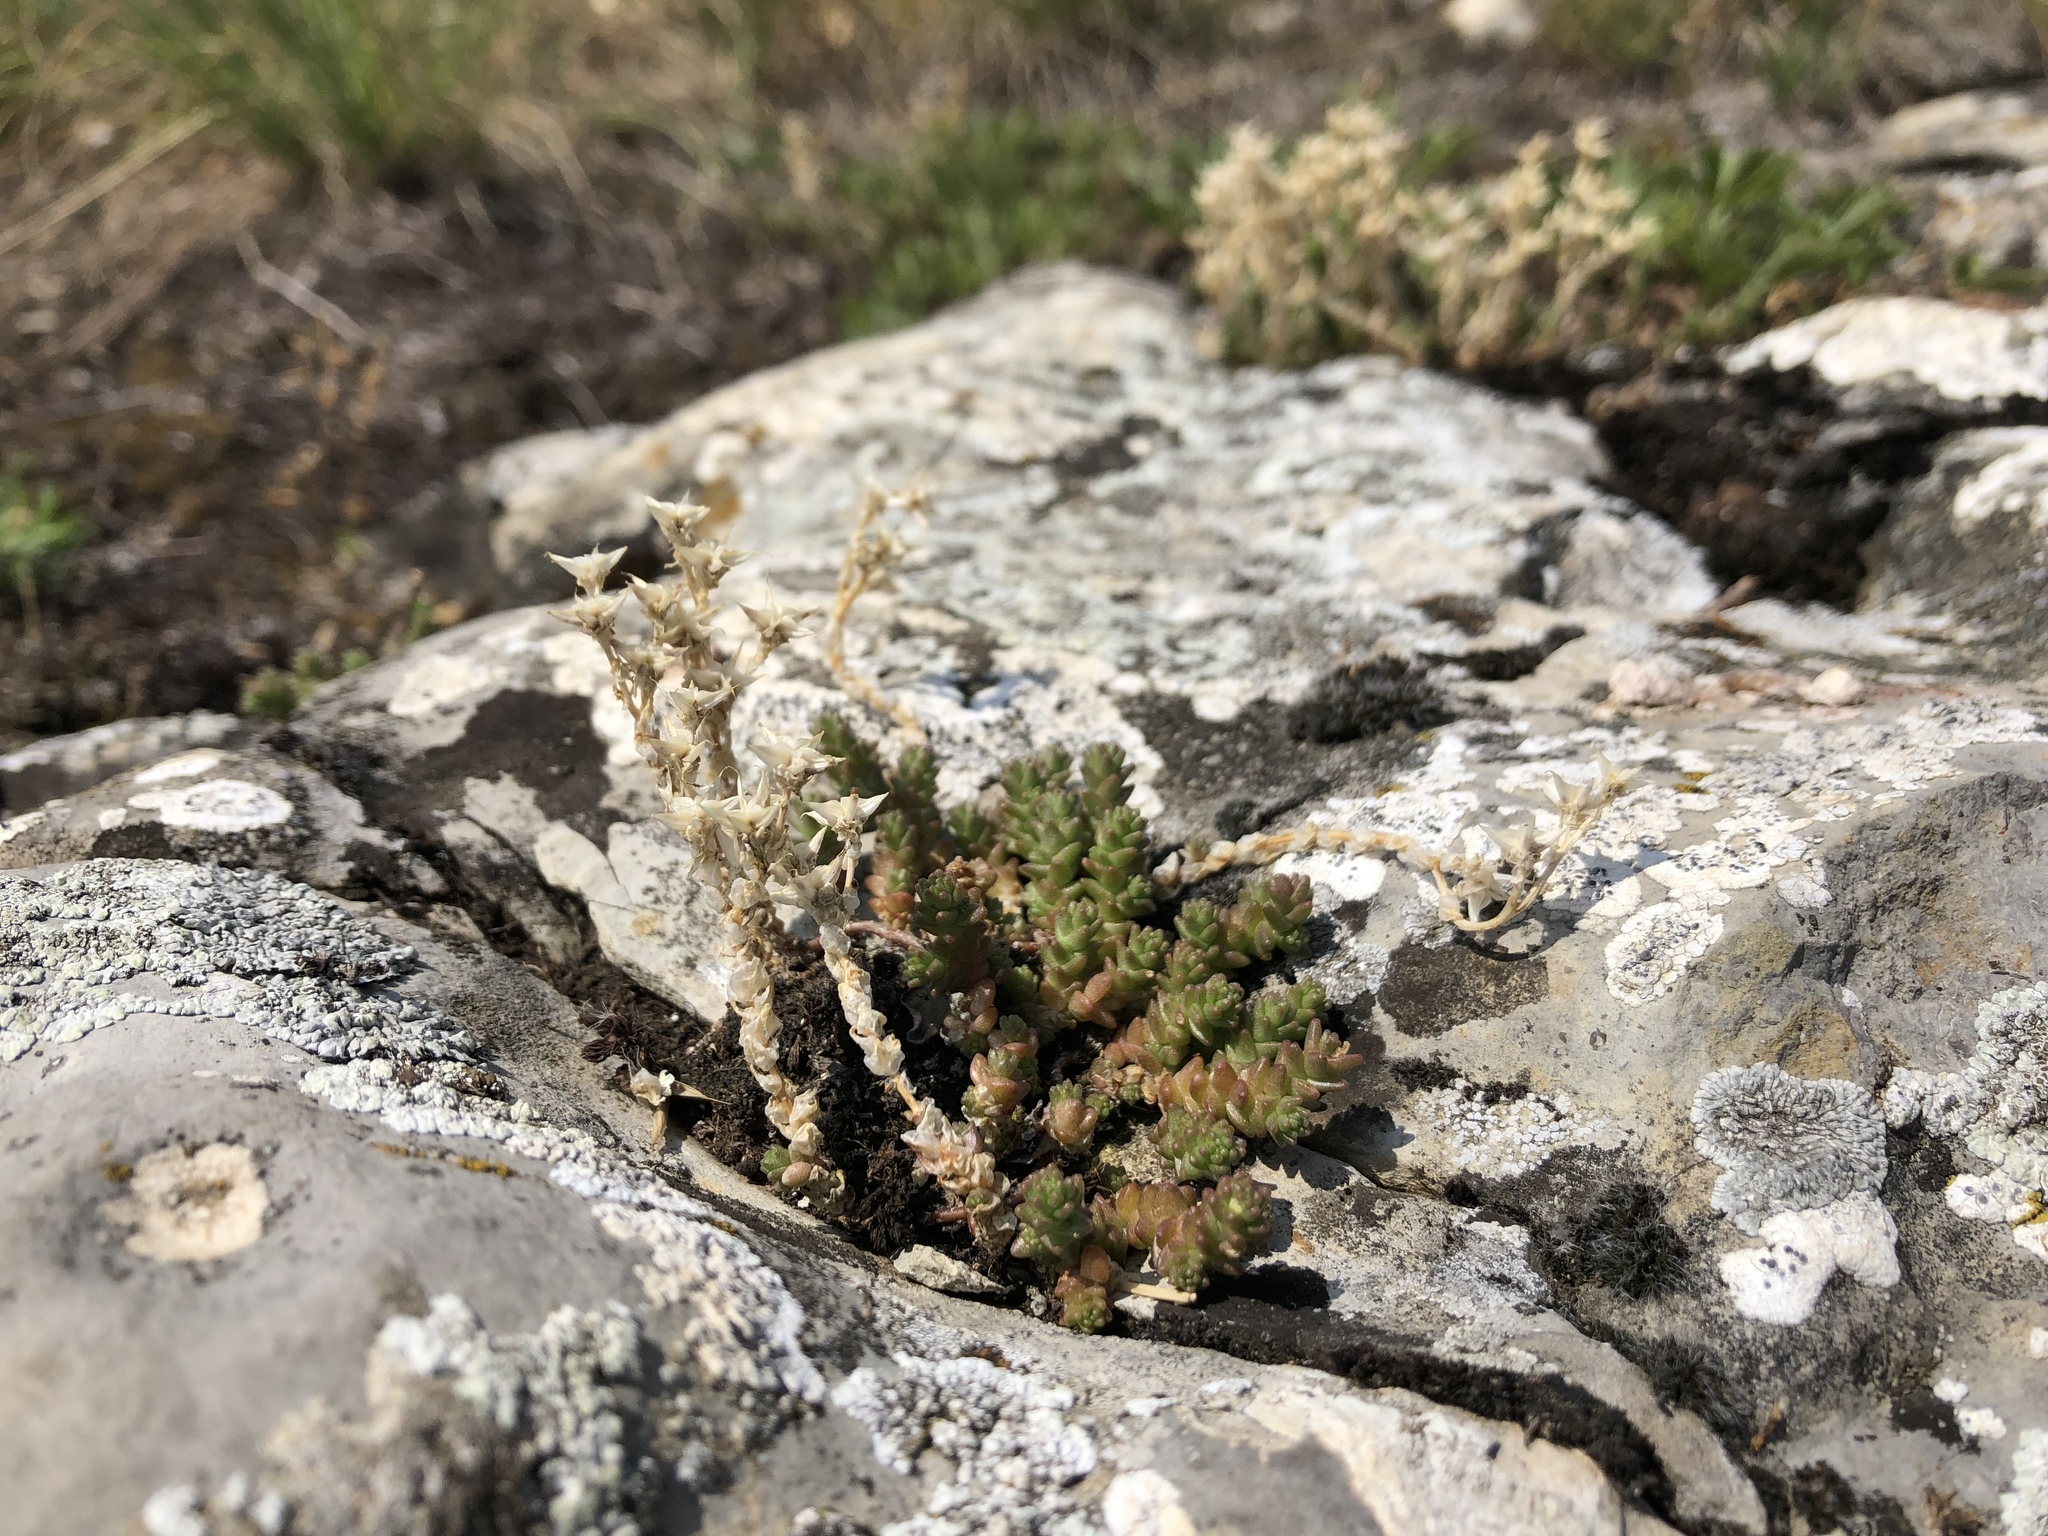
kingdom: Plantae
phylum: Tracheophyta
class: Magnoliopsida
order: Saxifragales
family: Crassulaceae
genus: Sedum
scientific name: Sedum acre
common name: Biting stonecrop
